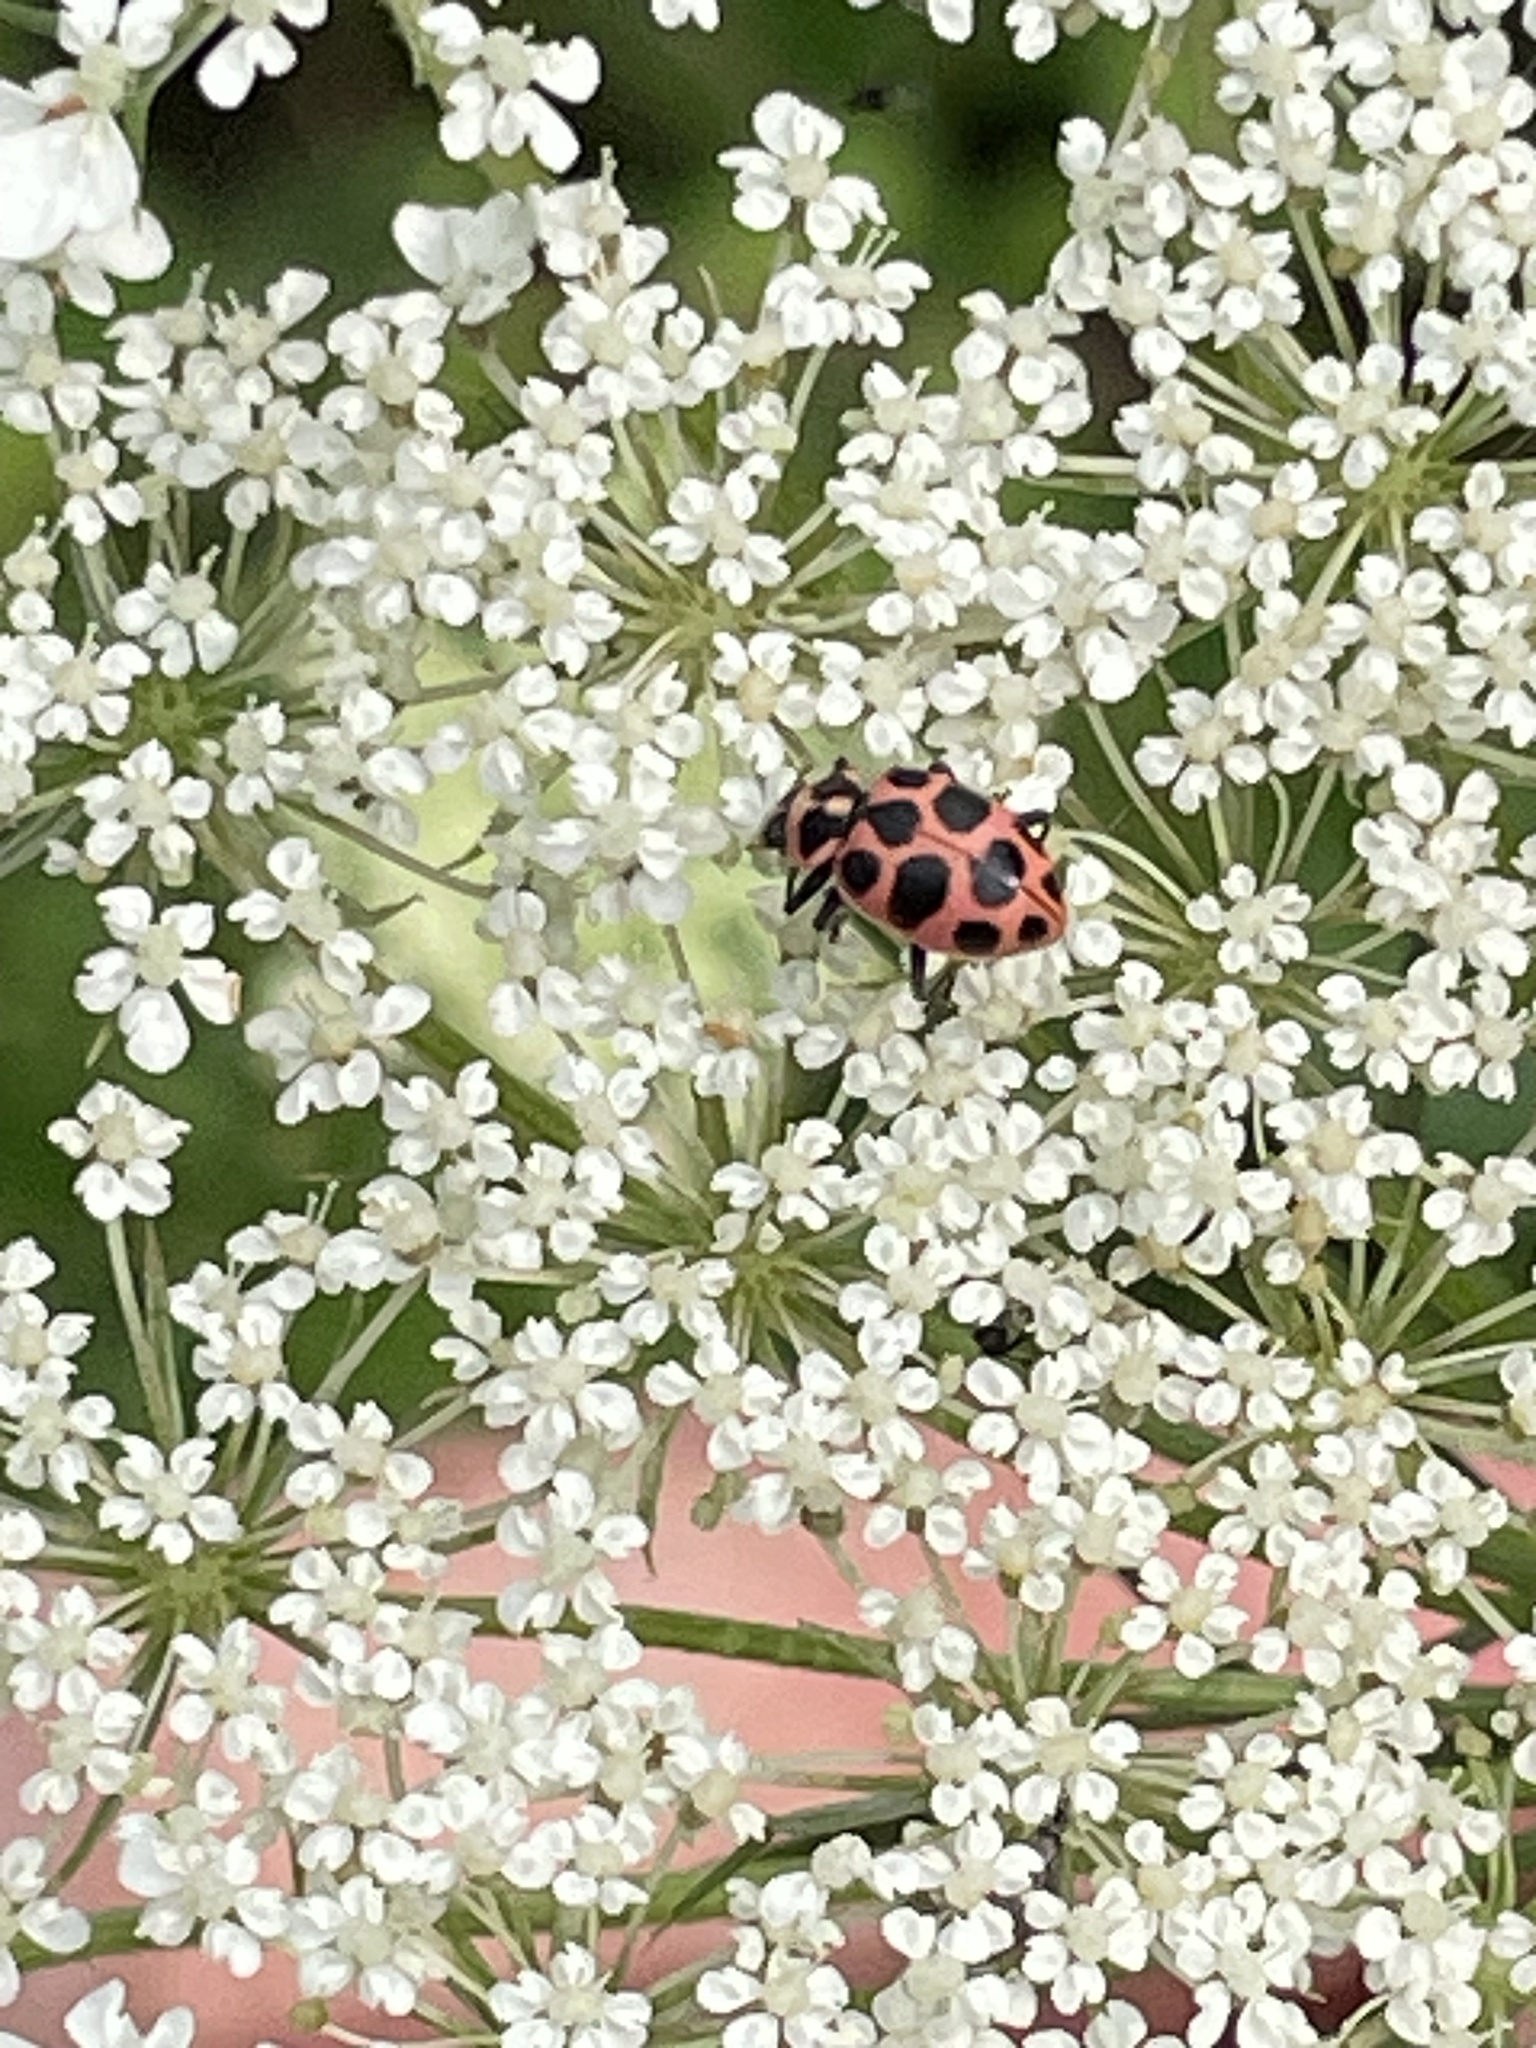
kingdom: Animalia
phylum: Arthropoda
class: Insecta
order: Coleoptera
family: Coccinellidae
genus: Coleomegilla
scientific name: Coleomegilla maculata
